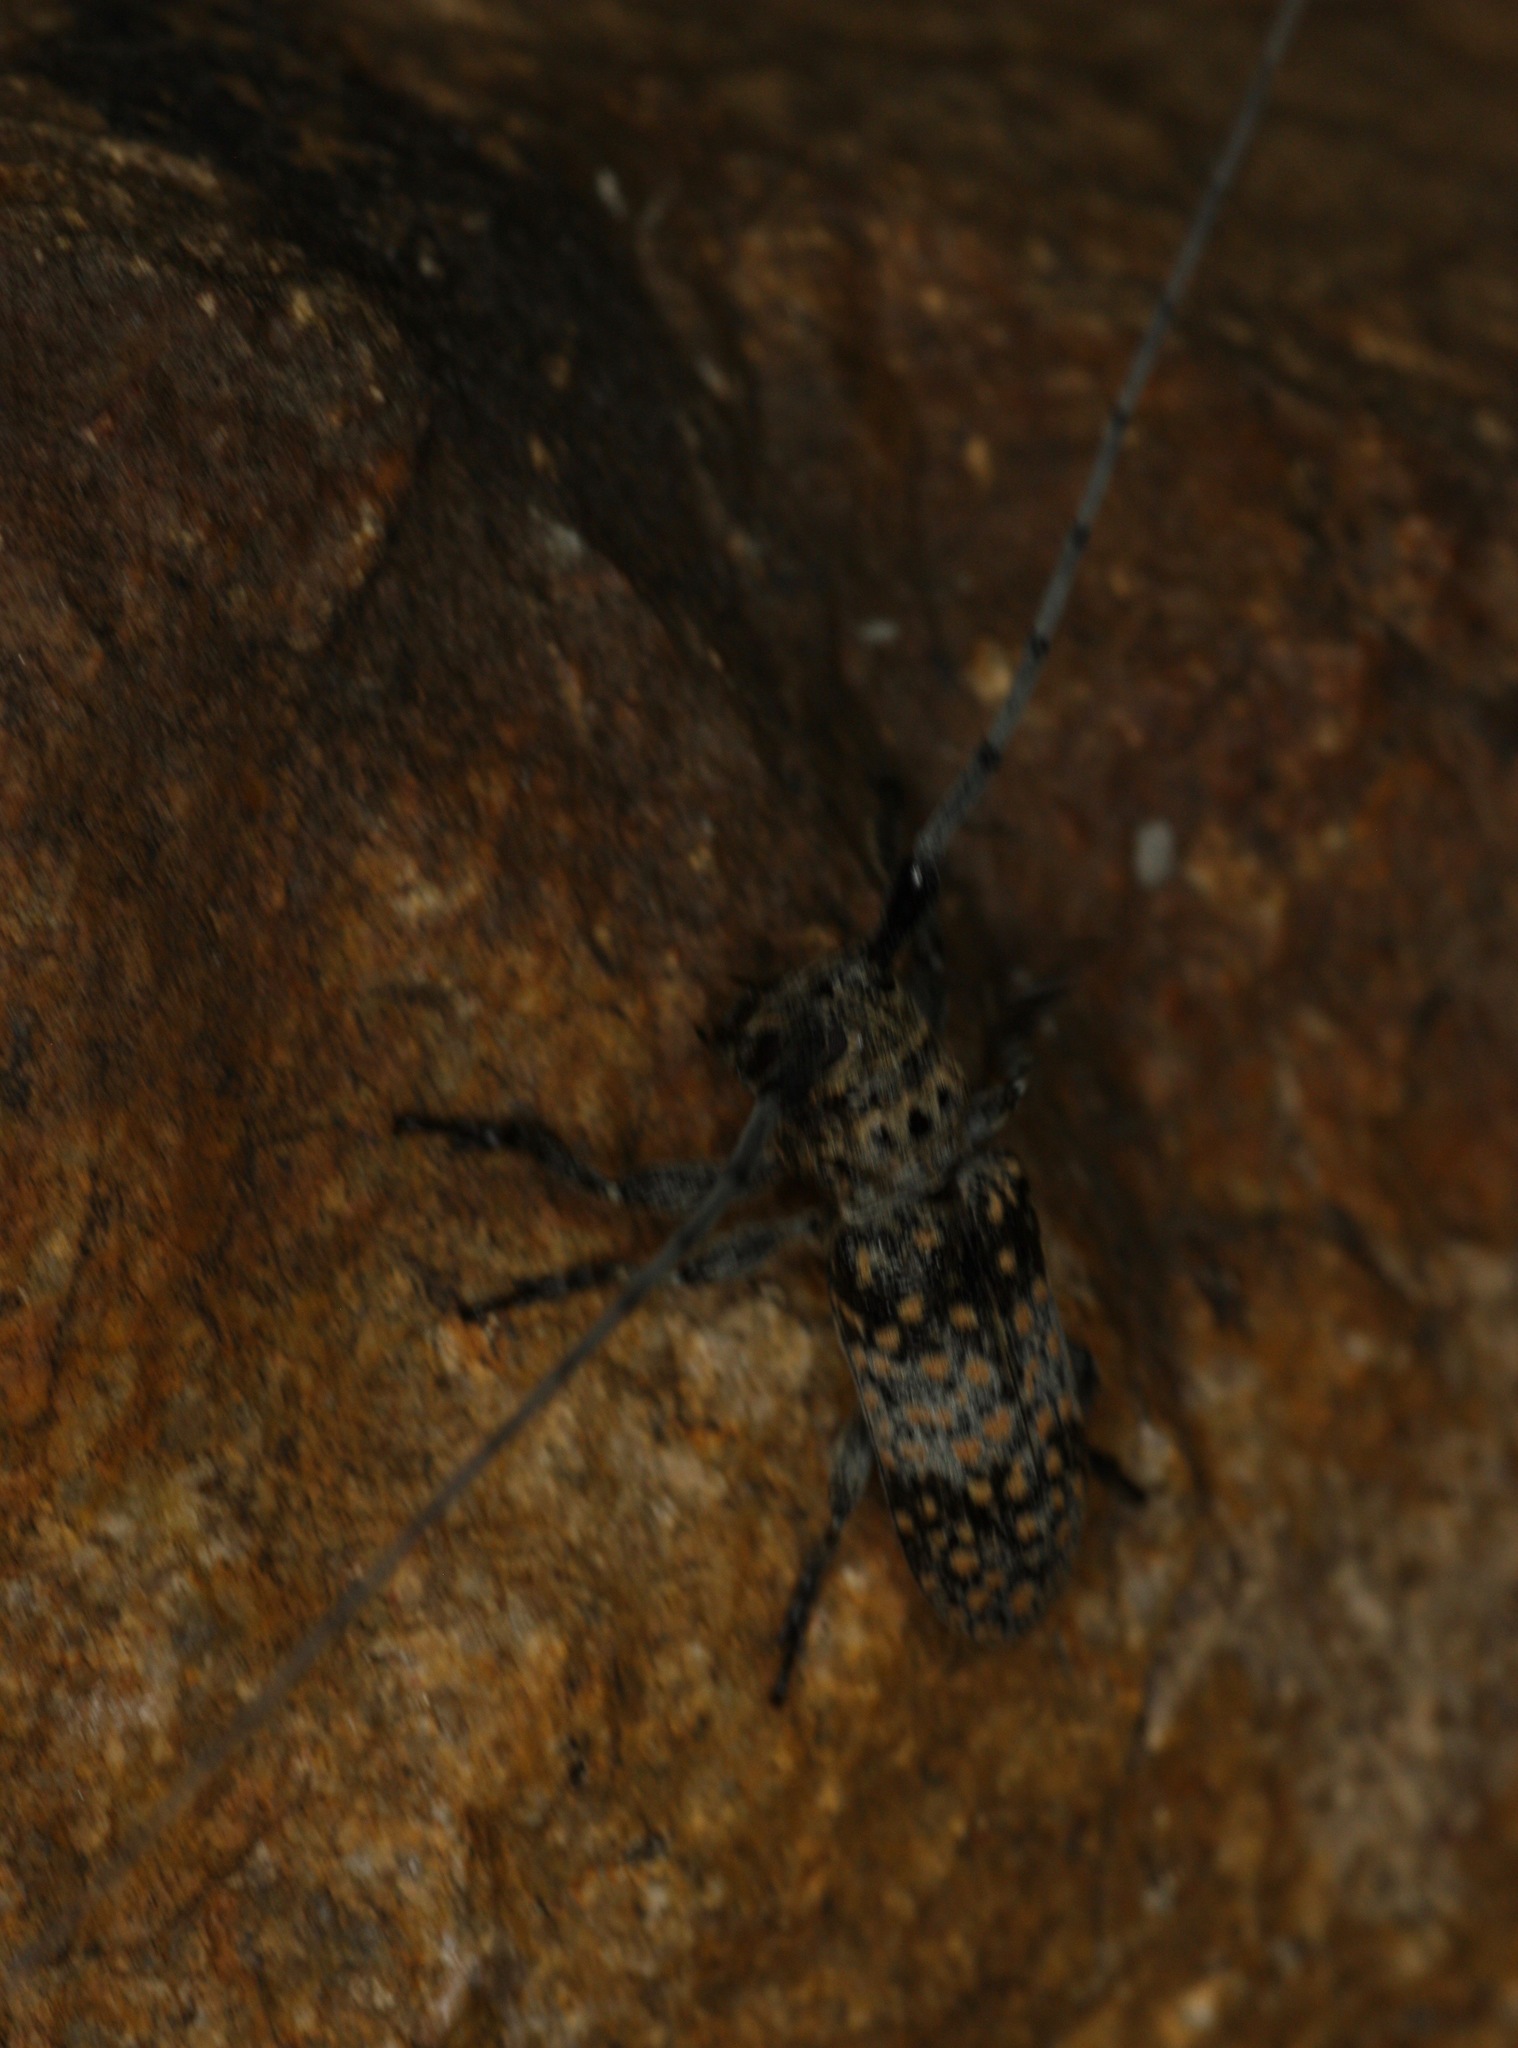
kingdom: Animalia
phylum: Arthropoda
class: Insecta
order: Coleoptera
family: Cerambycidae
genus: Oncideres
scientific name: Oncideres rhodosticta
